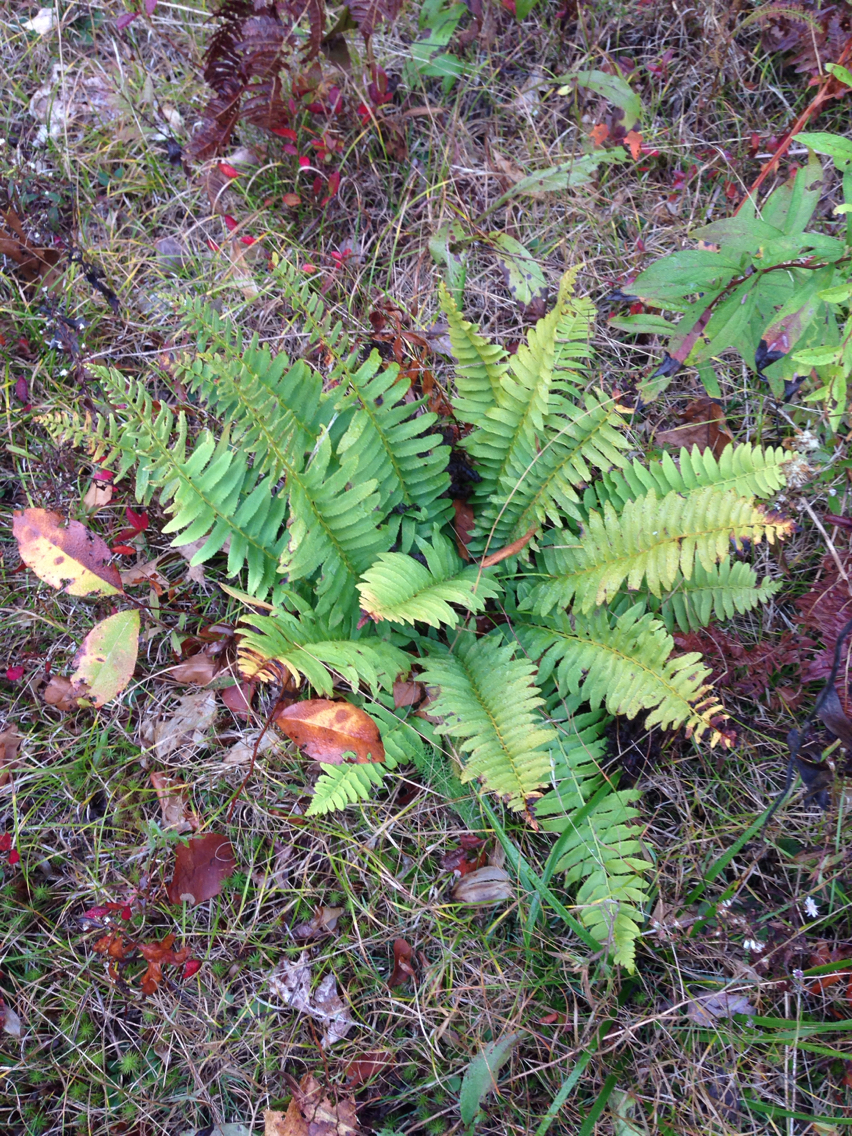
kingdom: Plantae
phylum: Tracheophyta
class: Polypodiopsida
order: Polypodiales
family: Dryopteridaceae
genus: Polystichum
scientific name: Polystichum acrostichoides
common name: Christmas fern
